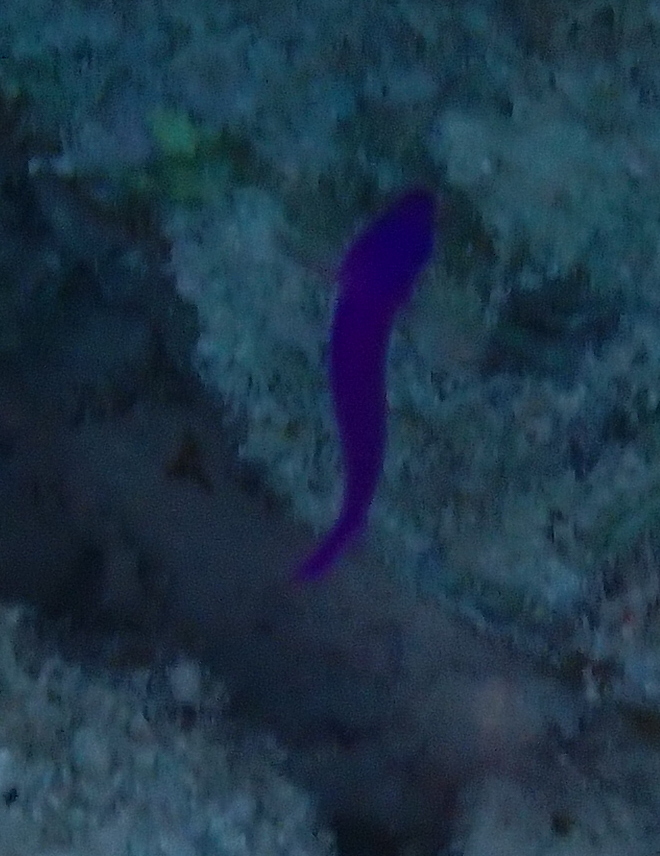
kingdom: Animalia
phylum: Chordata
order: Perciformes
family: Pseudochromidae
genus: Pseudochromis
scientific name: Pseudochromis fridmani
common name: Orchid dottyback
